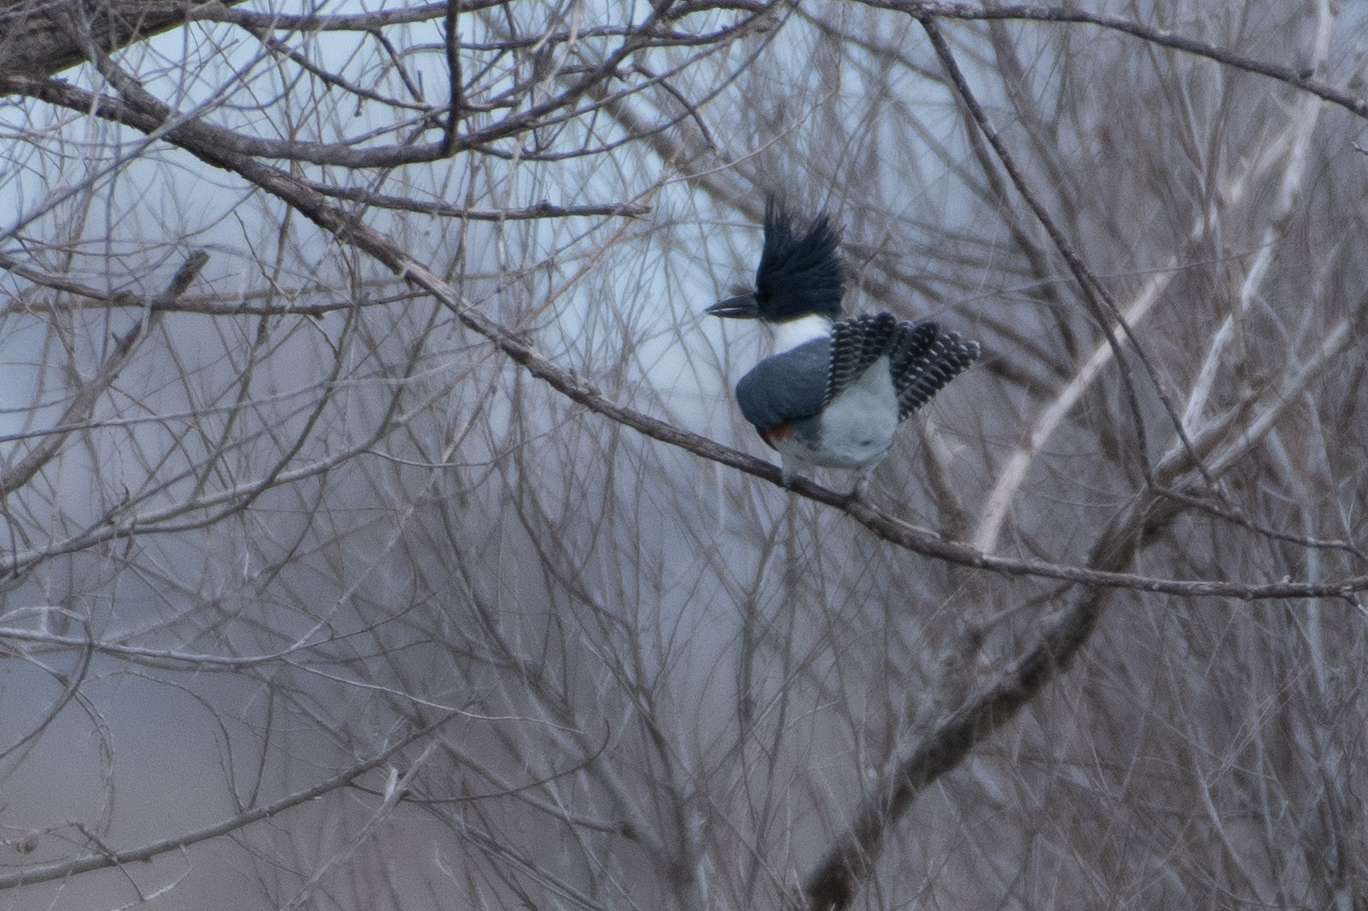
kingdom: Animalia
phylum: Chordata
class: Aves
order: Coraciiformes
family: Alcedinidae
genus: Megaceryle
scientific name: Megaceryle alcyon
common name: Belted kingfisher
